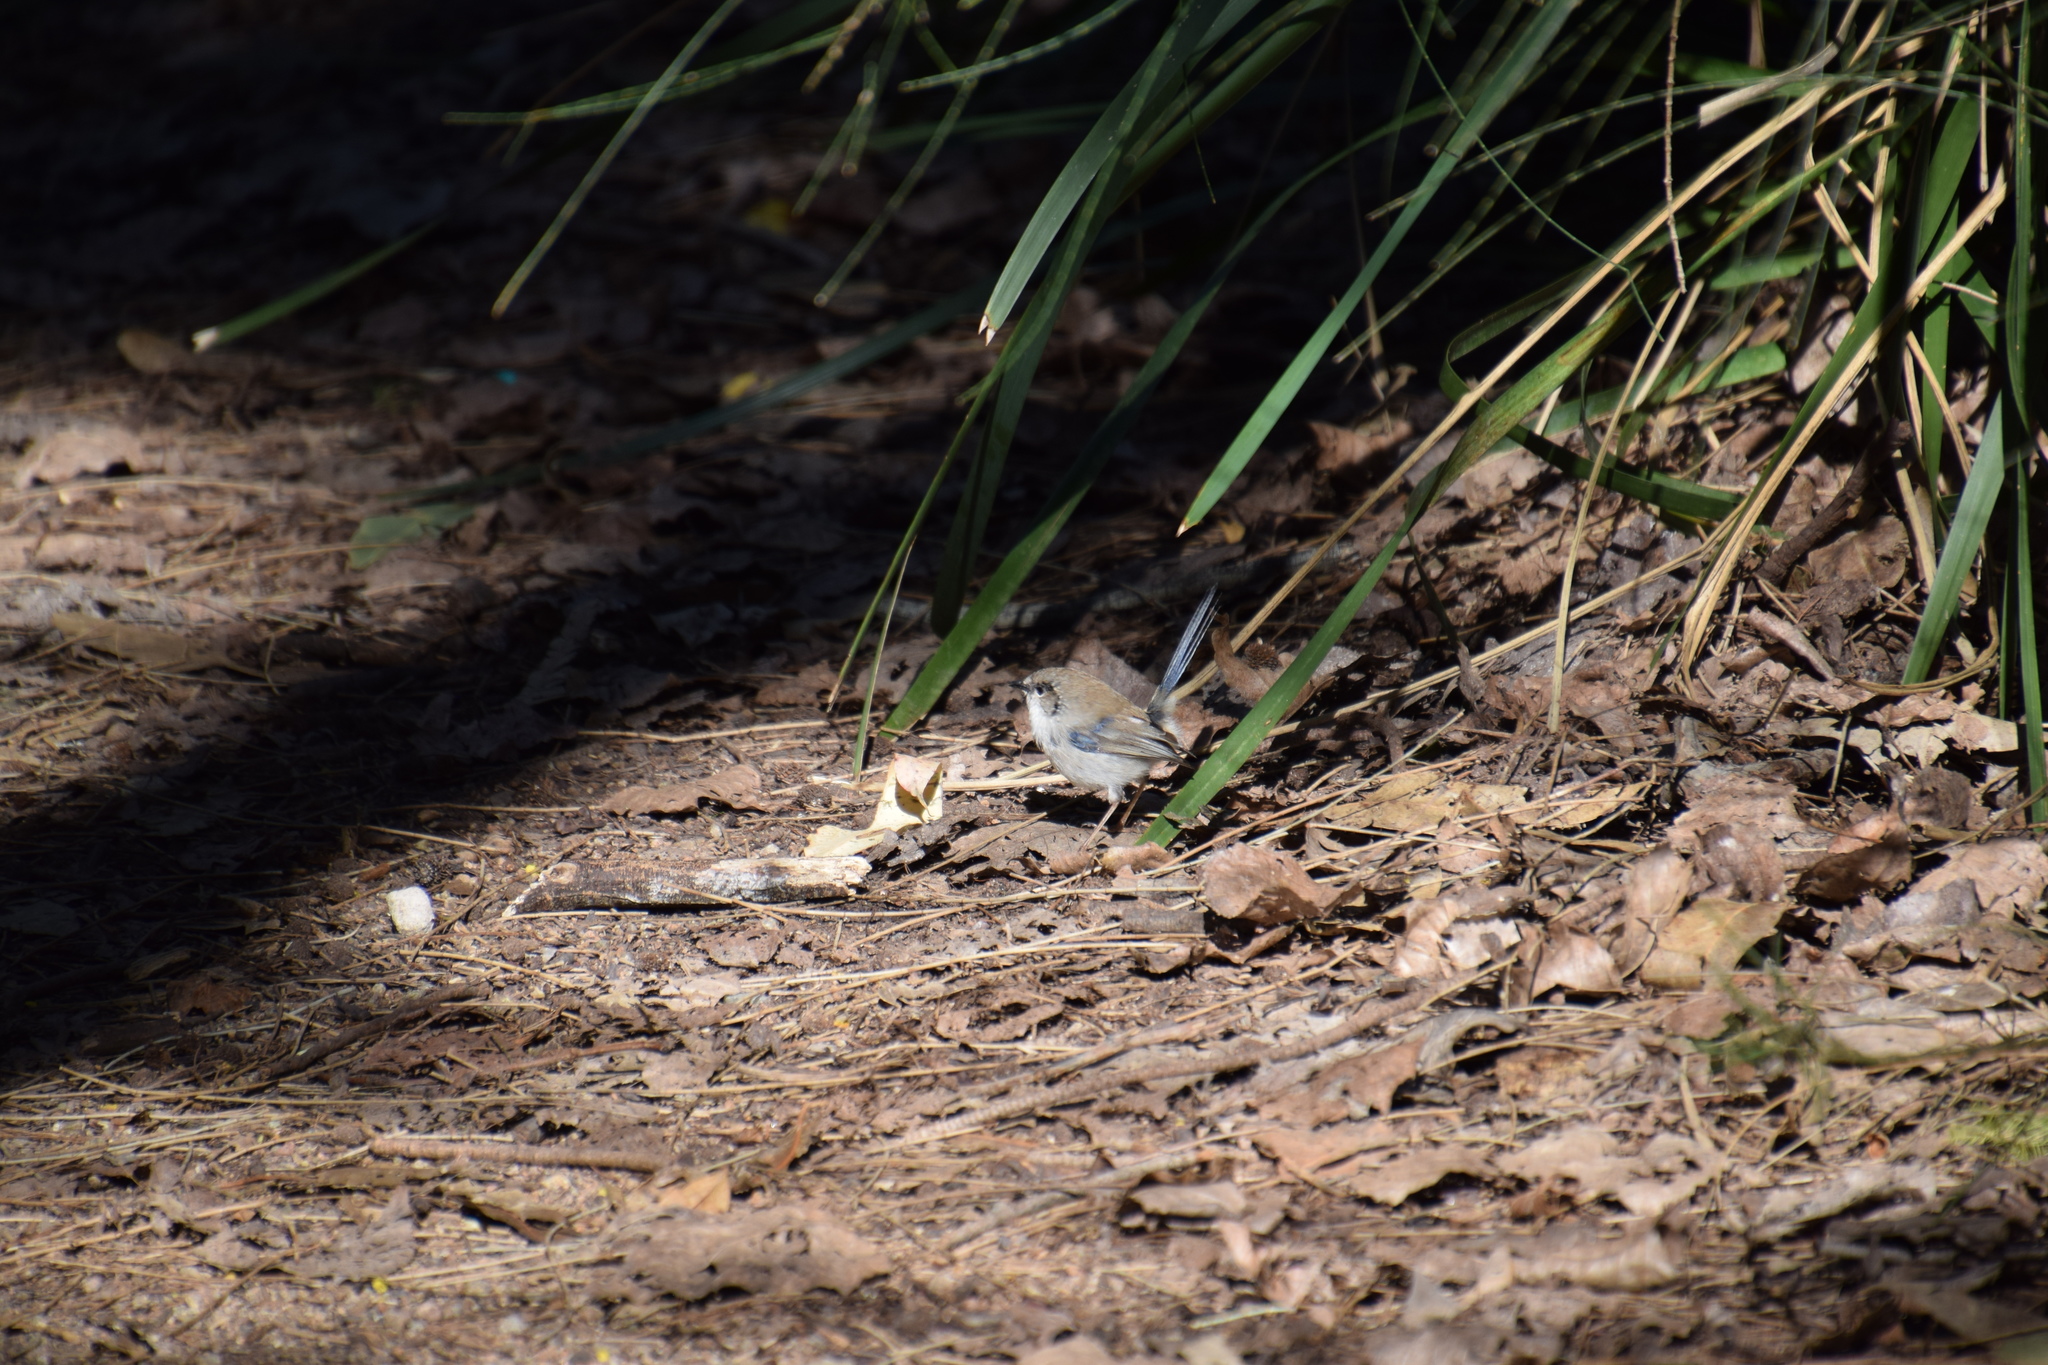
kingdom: Animalia
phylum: Chordata
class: Aves
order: Passeriformes
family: Maluridae
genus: Malurus
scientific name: Malurus cyaneus
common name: Superb fairywren
